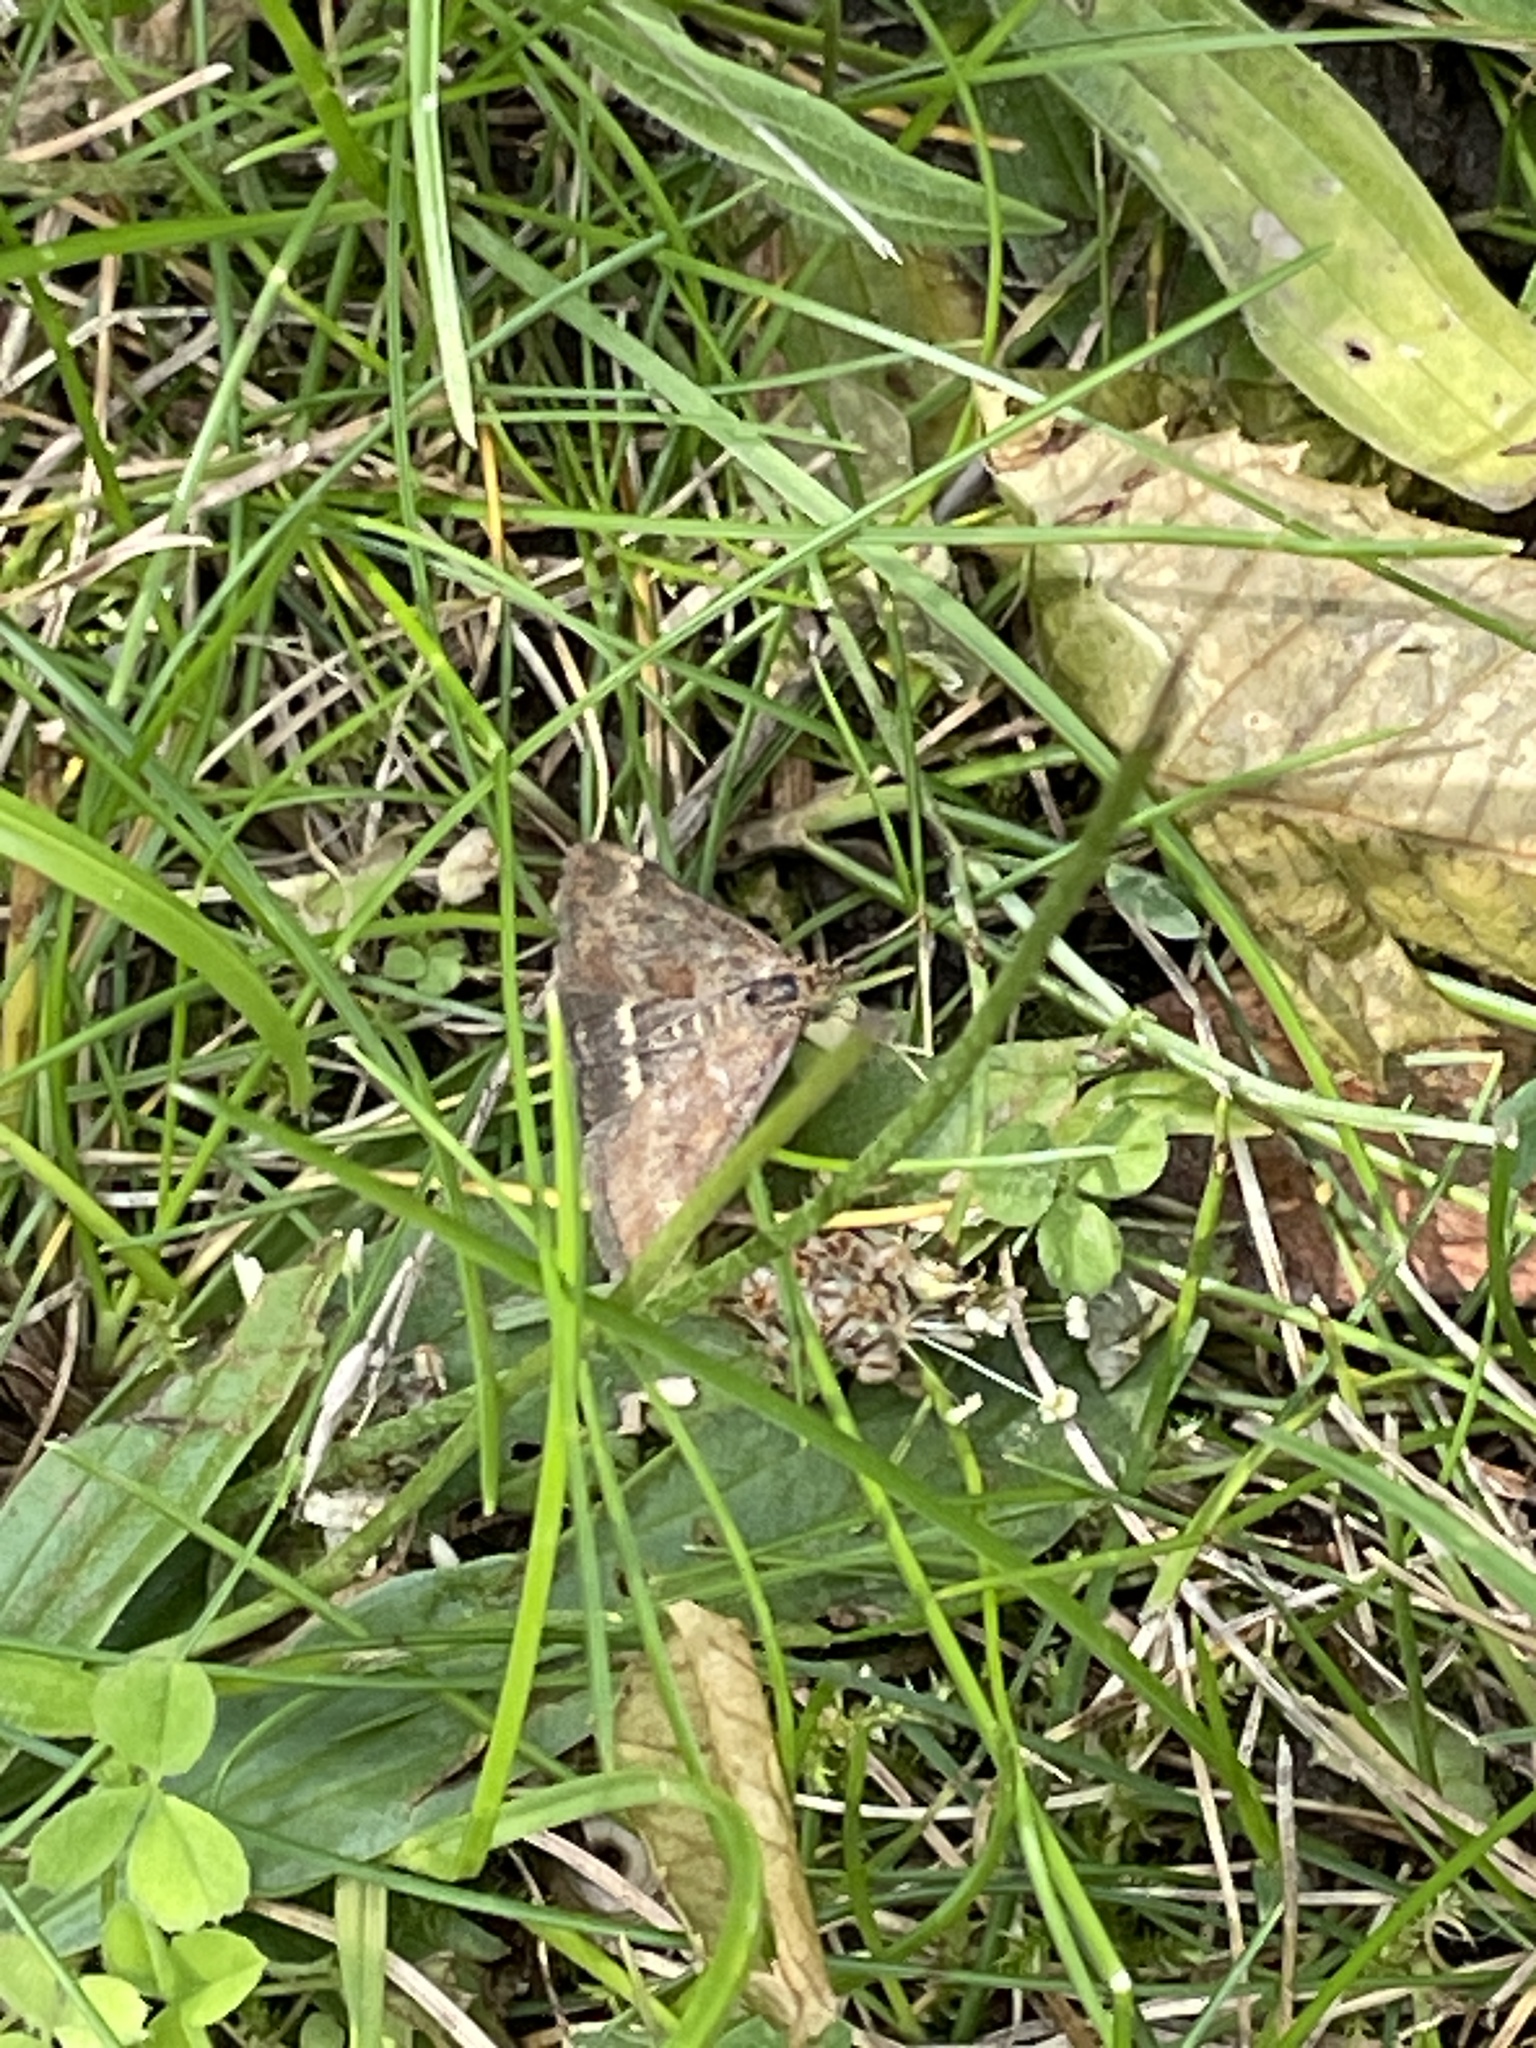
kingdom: Animalia
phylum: Arthropoda
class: Insecta
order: Lepidoptera
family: Crambidae
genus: Pyrausta
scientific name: Pyrausta despicata
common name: Straw-barred pearl
